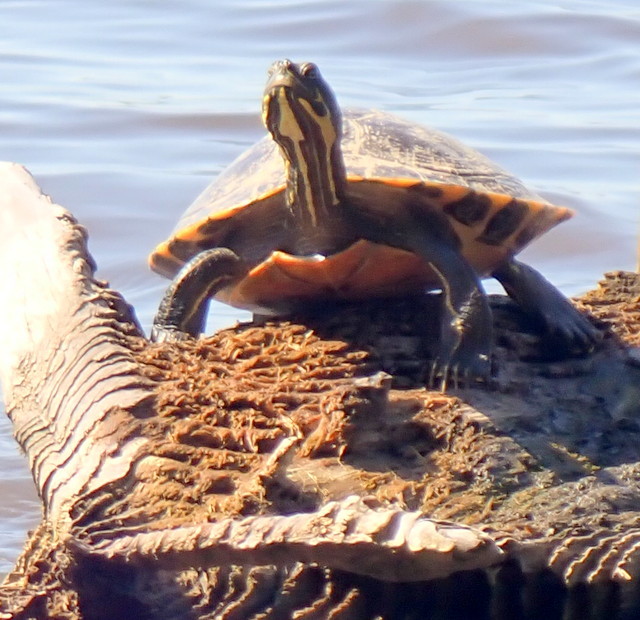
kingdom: Animalia
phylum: Chordata
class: Testudines
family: Emydidae
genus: Pseudemys
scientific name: Pseudemys concinna
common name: Eastern river cooter
